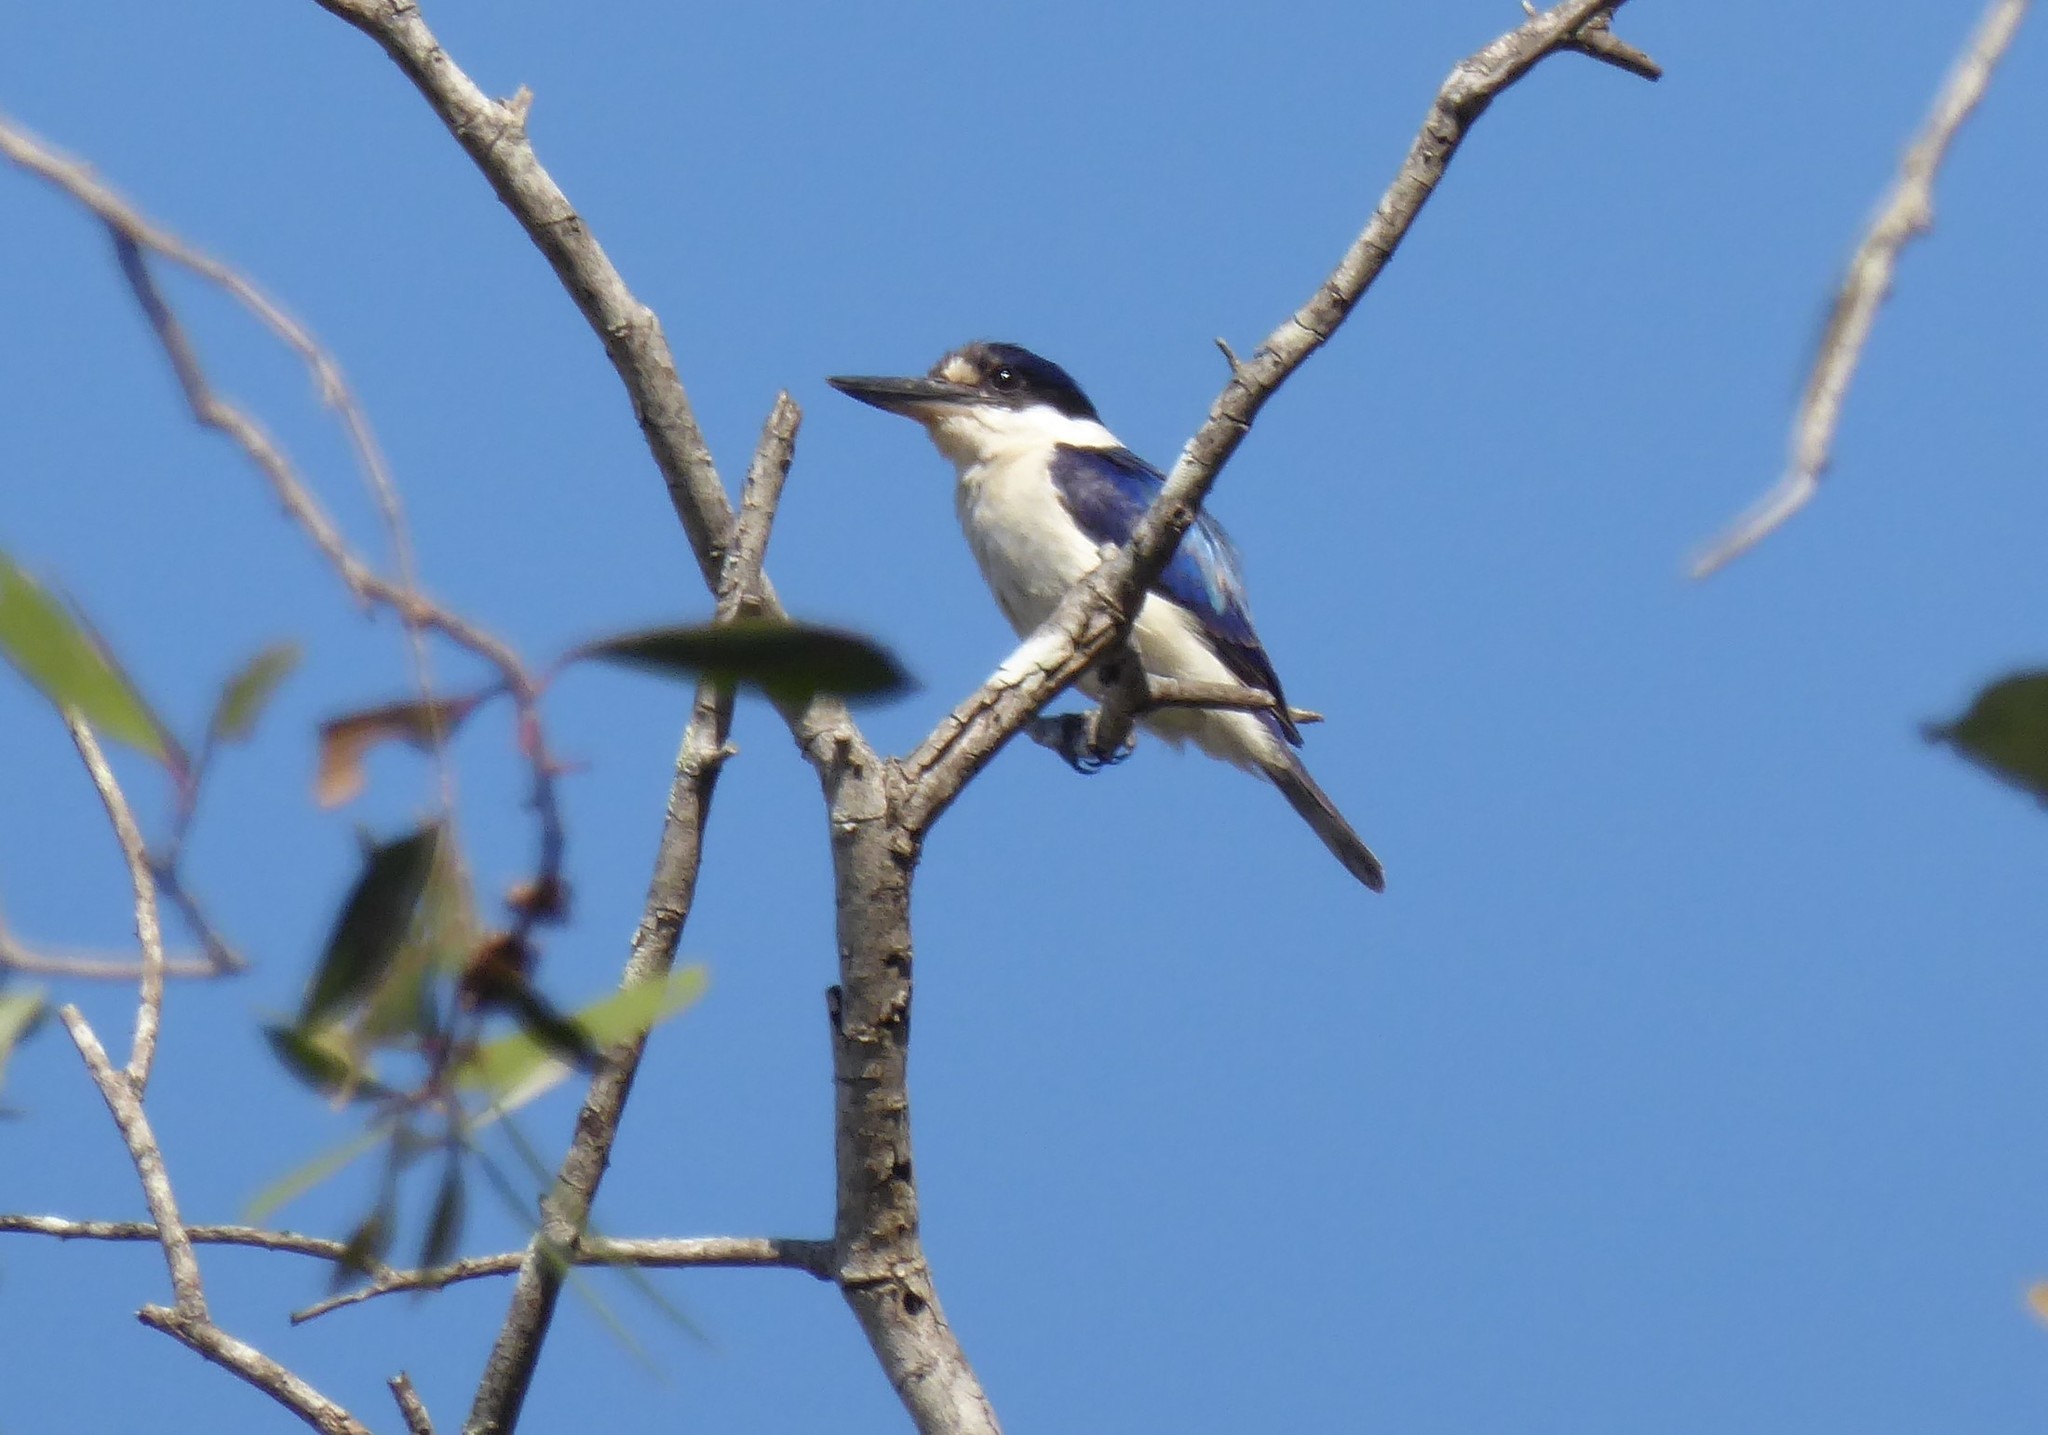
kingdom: Animalia
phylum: Chordata
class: Aves
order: Coraciiformes
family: Alcedinidae
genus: Todiramphus
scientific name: Todiramphus macleayii
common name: Forest kingfisher
